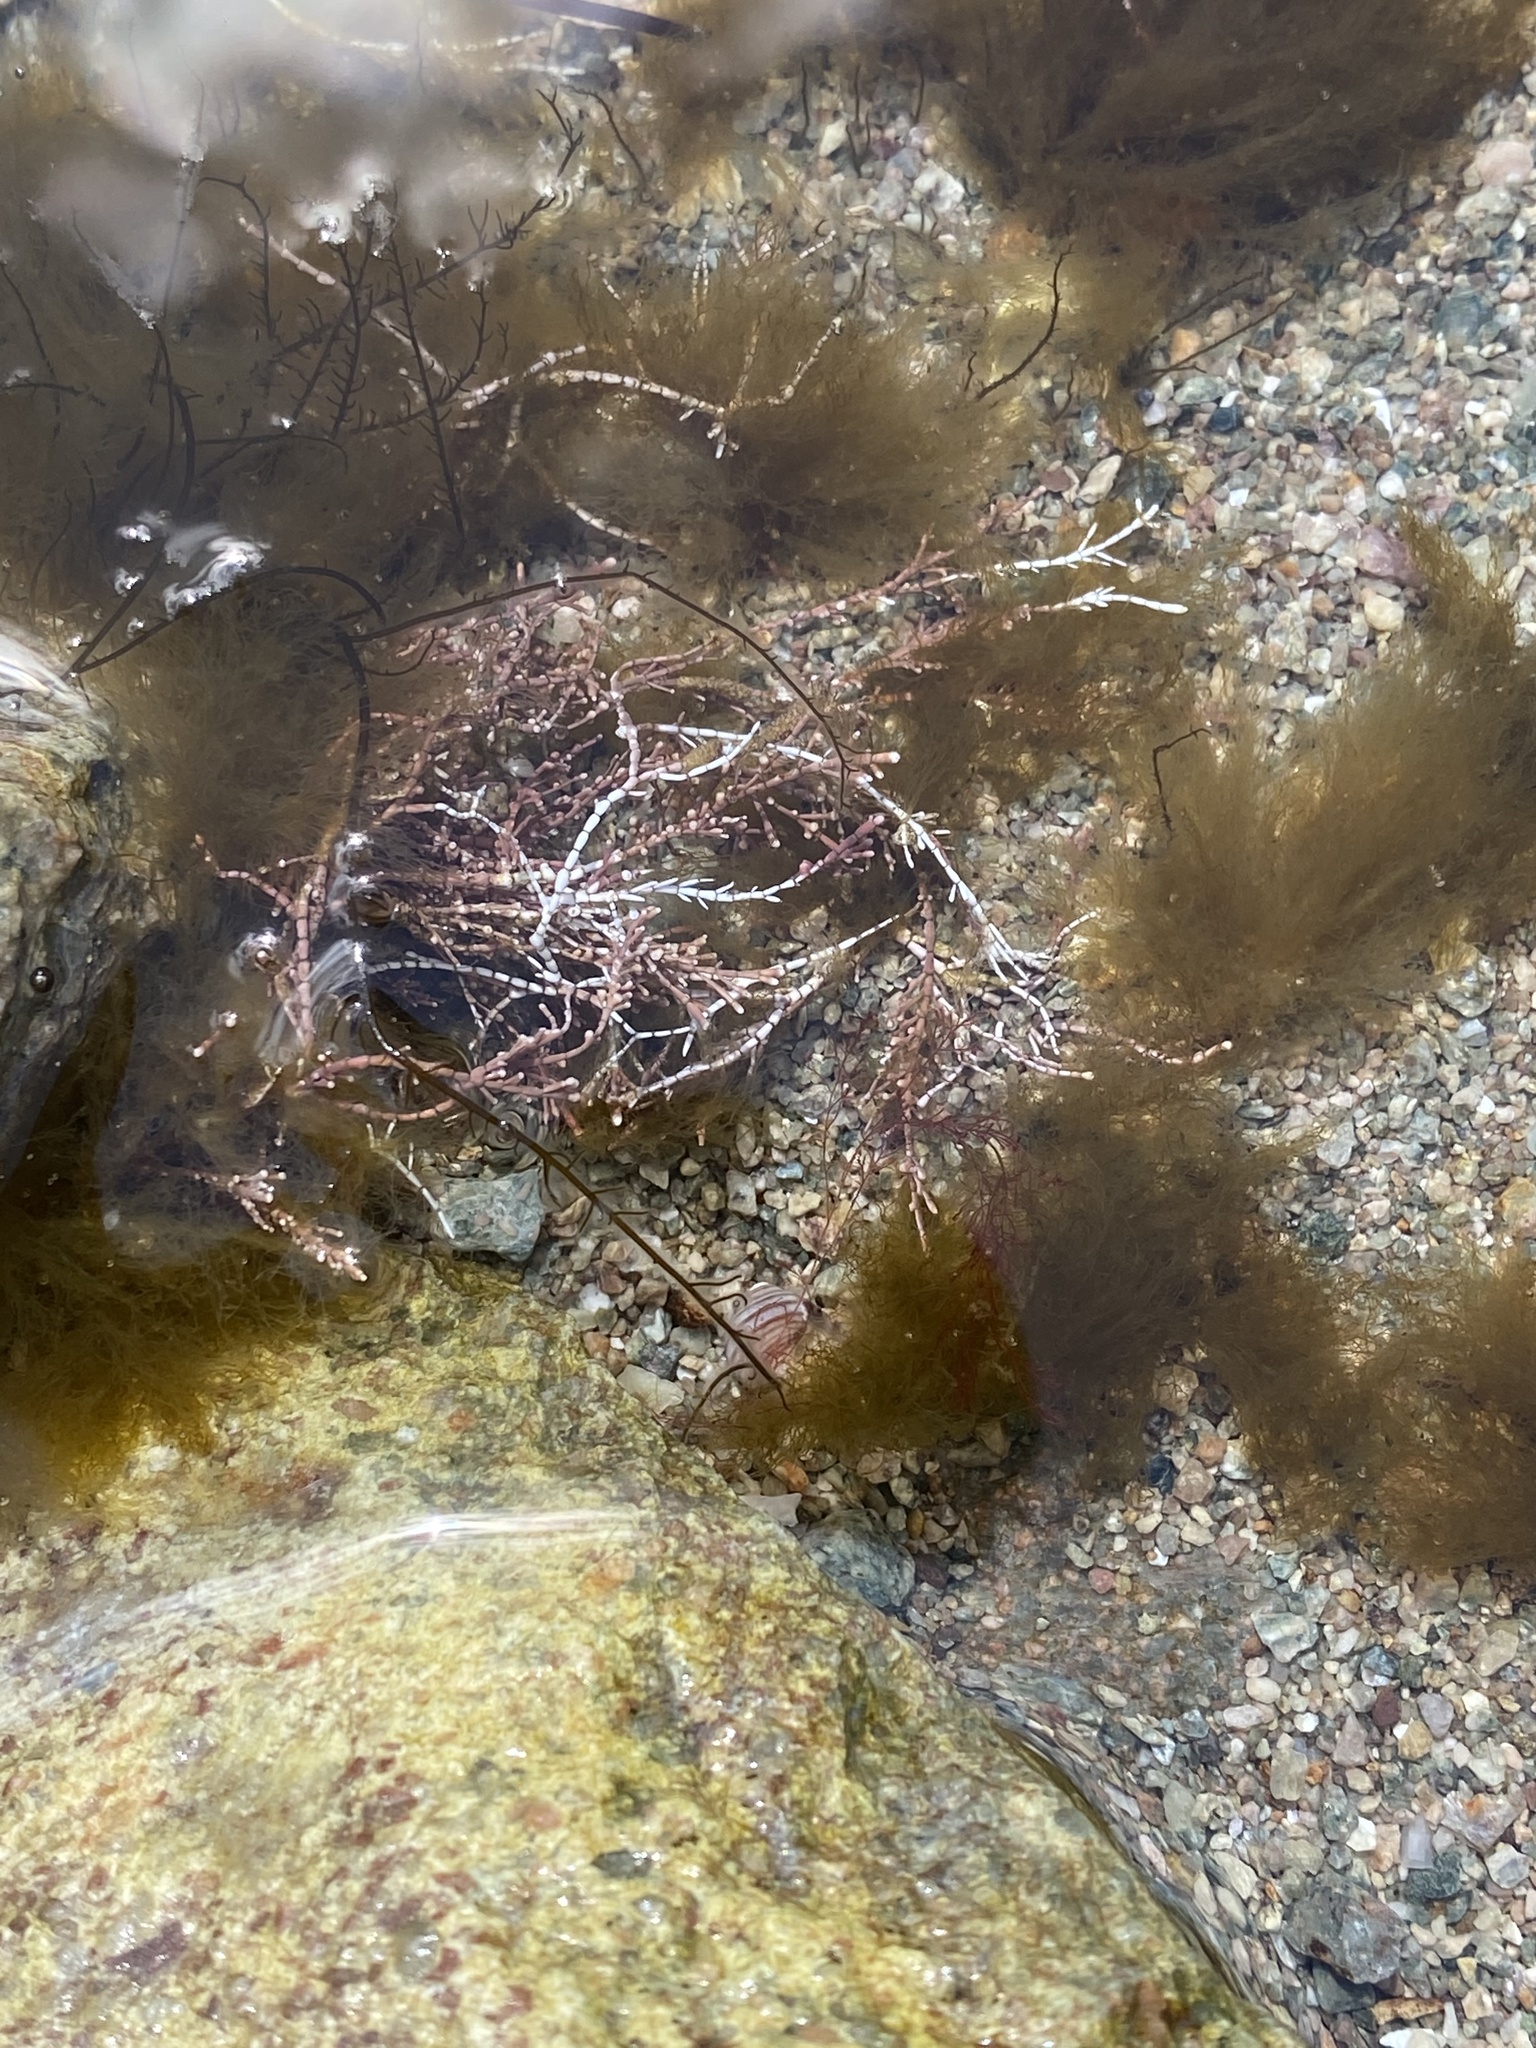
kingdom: Plantae
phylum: Rhodophyta
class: Florideophyceae
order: Corallinales
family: Corallinaceae
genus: Corallina
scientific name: Corallina officinalis
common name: Coral weed
